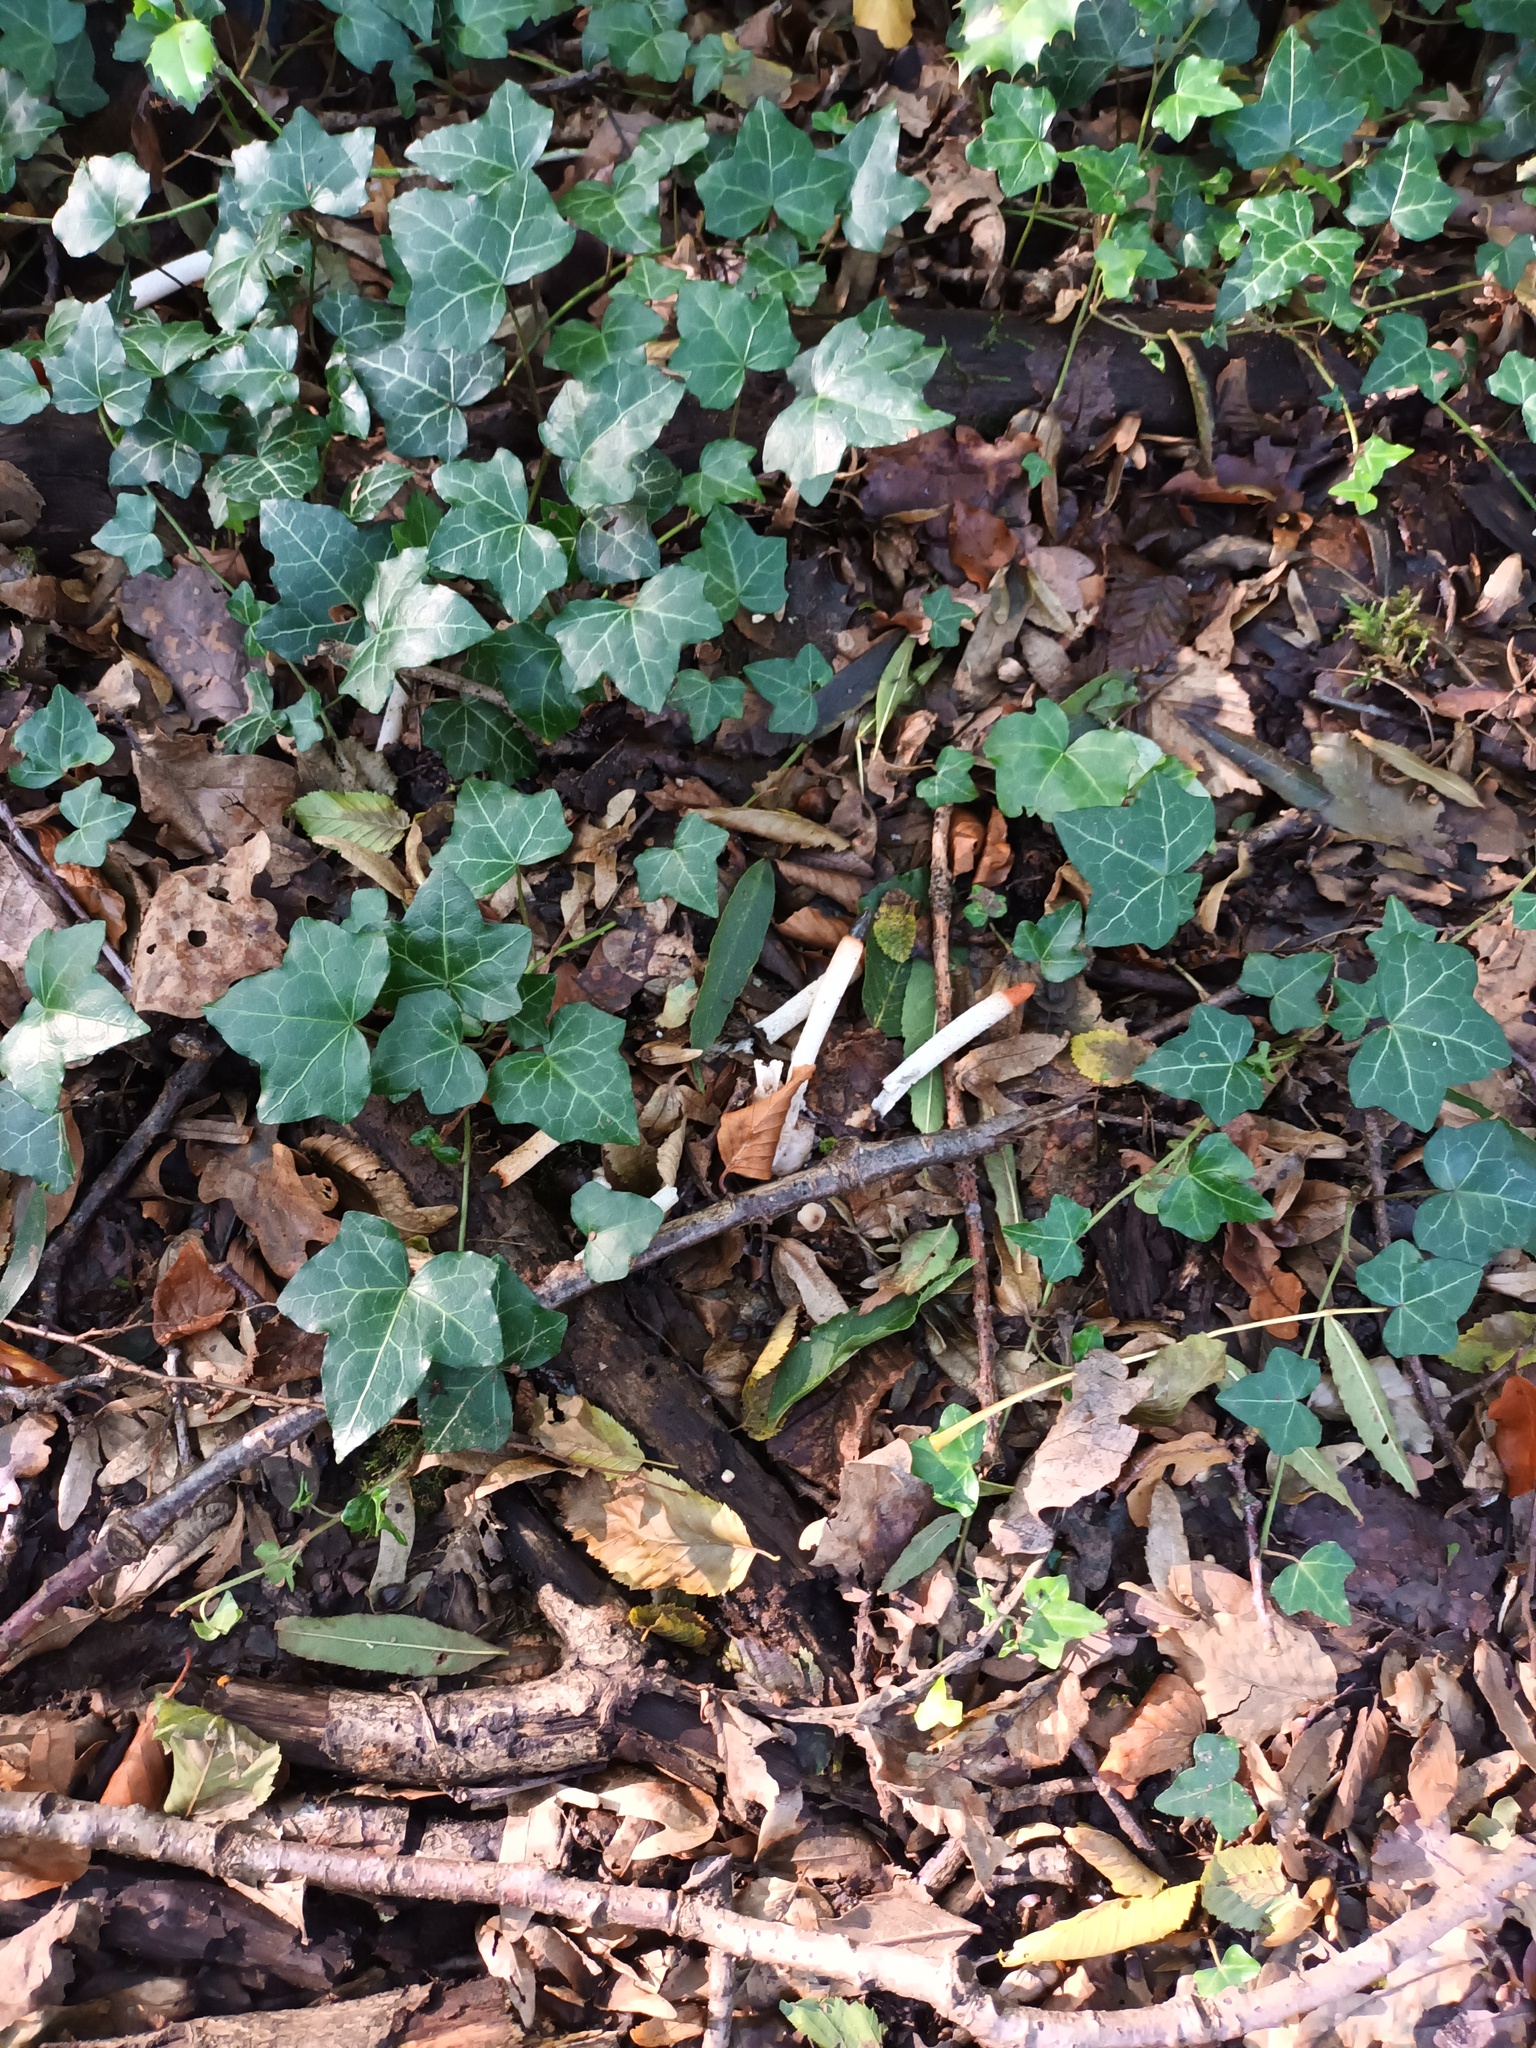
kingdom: Fungi
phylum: Basidiomycota
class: Agaricomycetes
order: Phallales
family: Phallaceae
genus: Mutinus
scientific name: Mutinus caninus
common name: Dog stinkhorn
